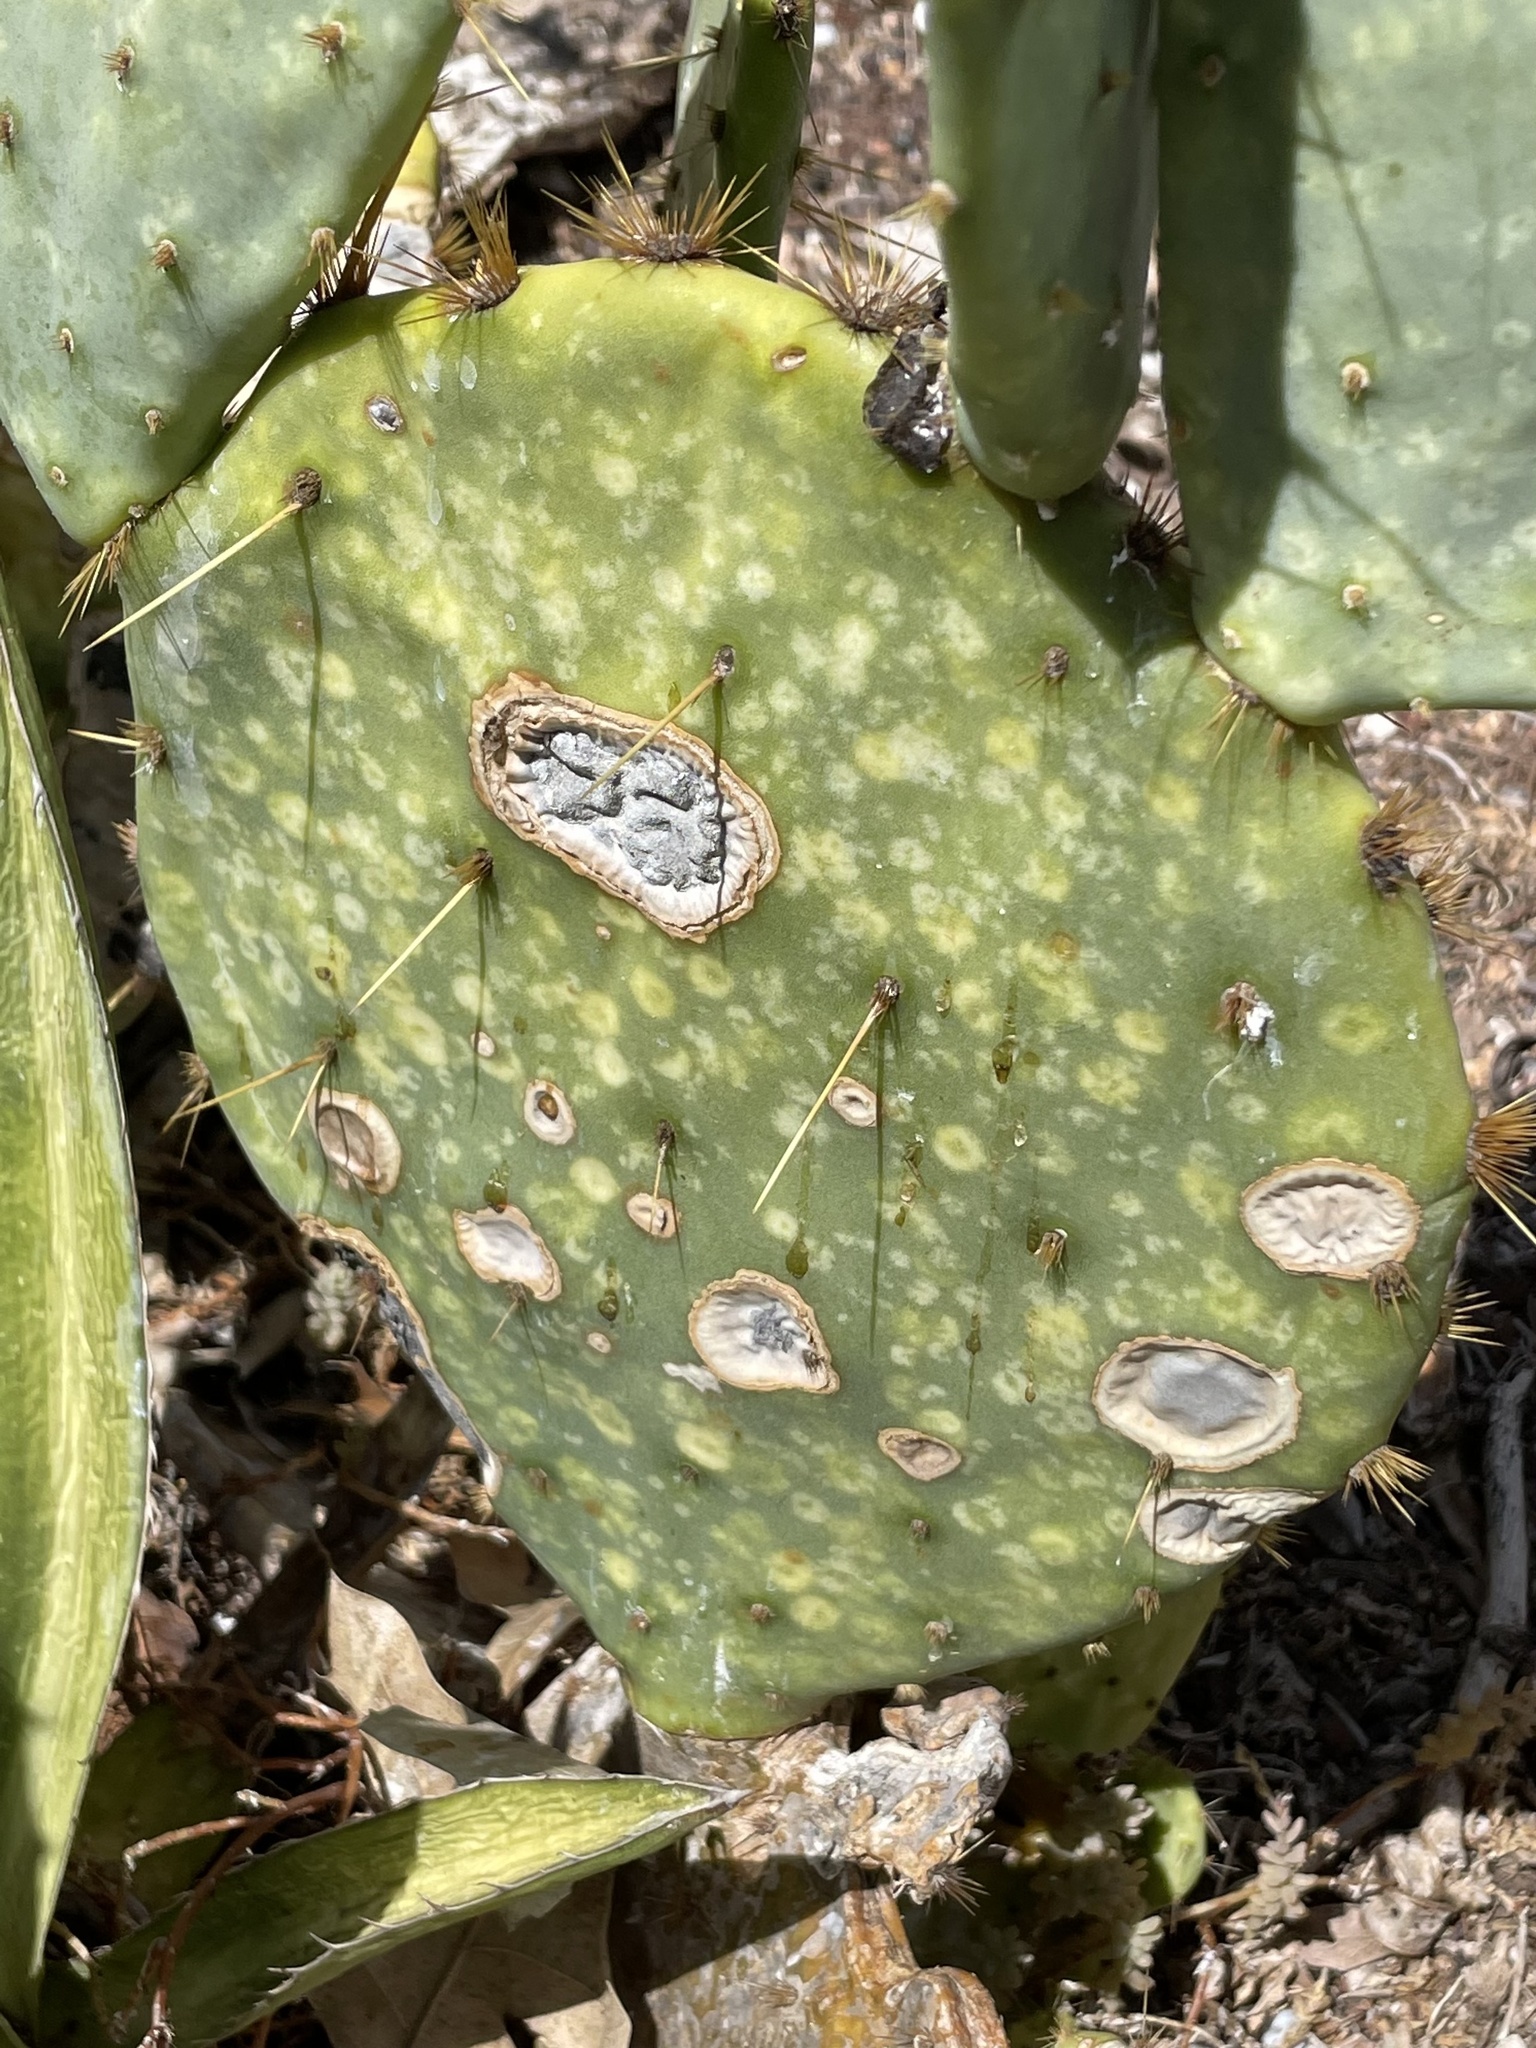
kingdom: Fungi
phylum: Ascomycota
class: Dothideomycetes
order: Botryosphaeriales
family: Phyllostictaceae
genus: Phyllosticta
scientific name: Phyllosticta concava
